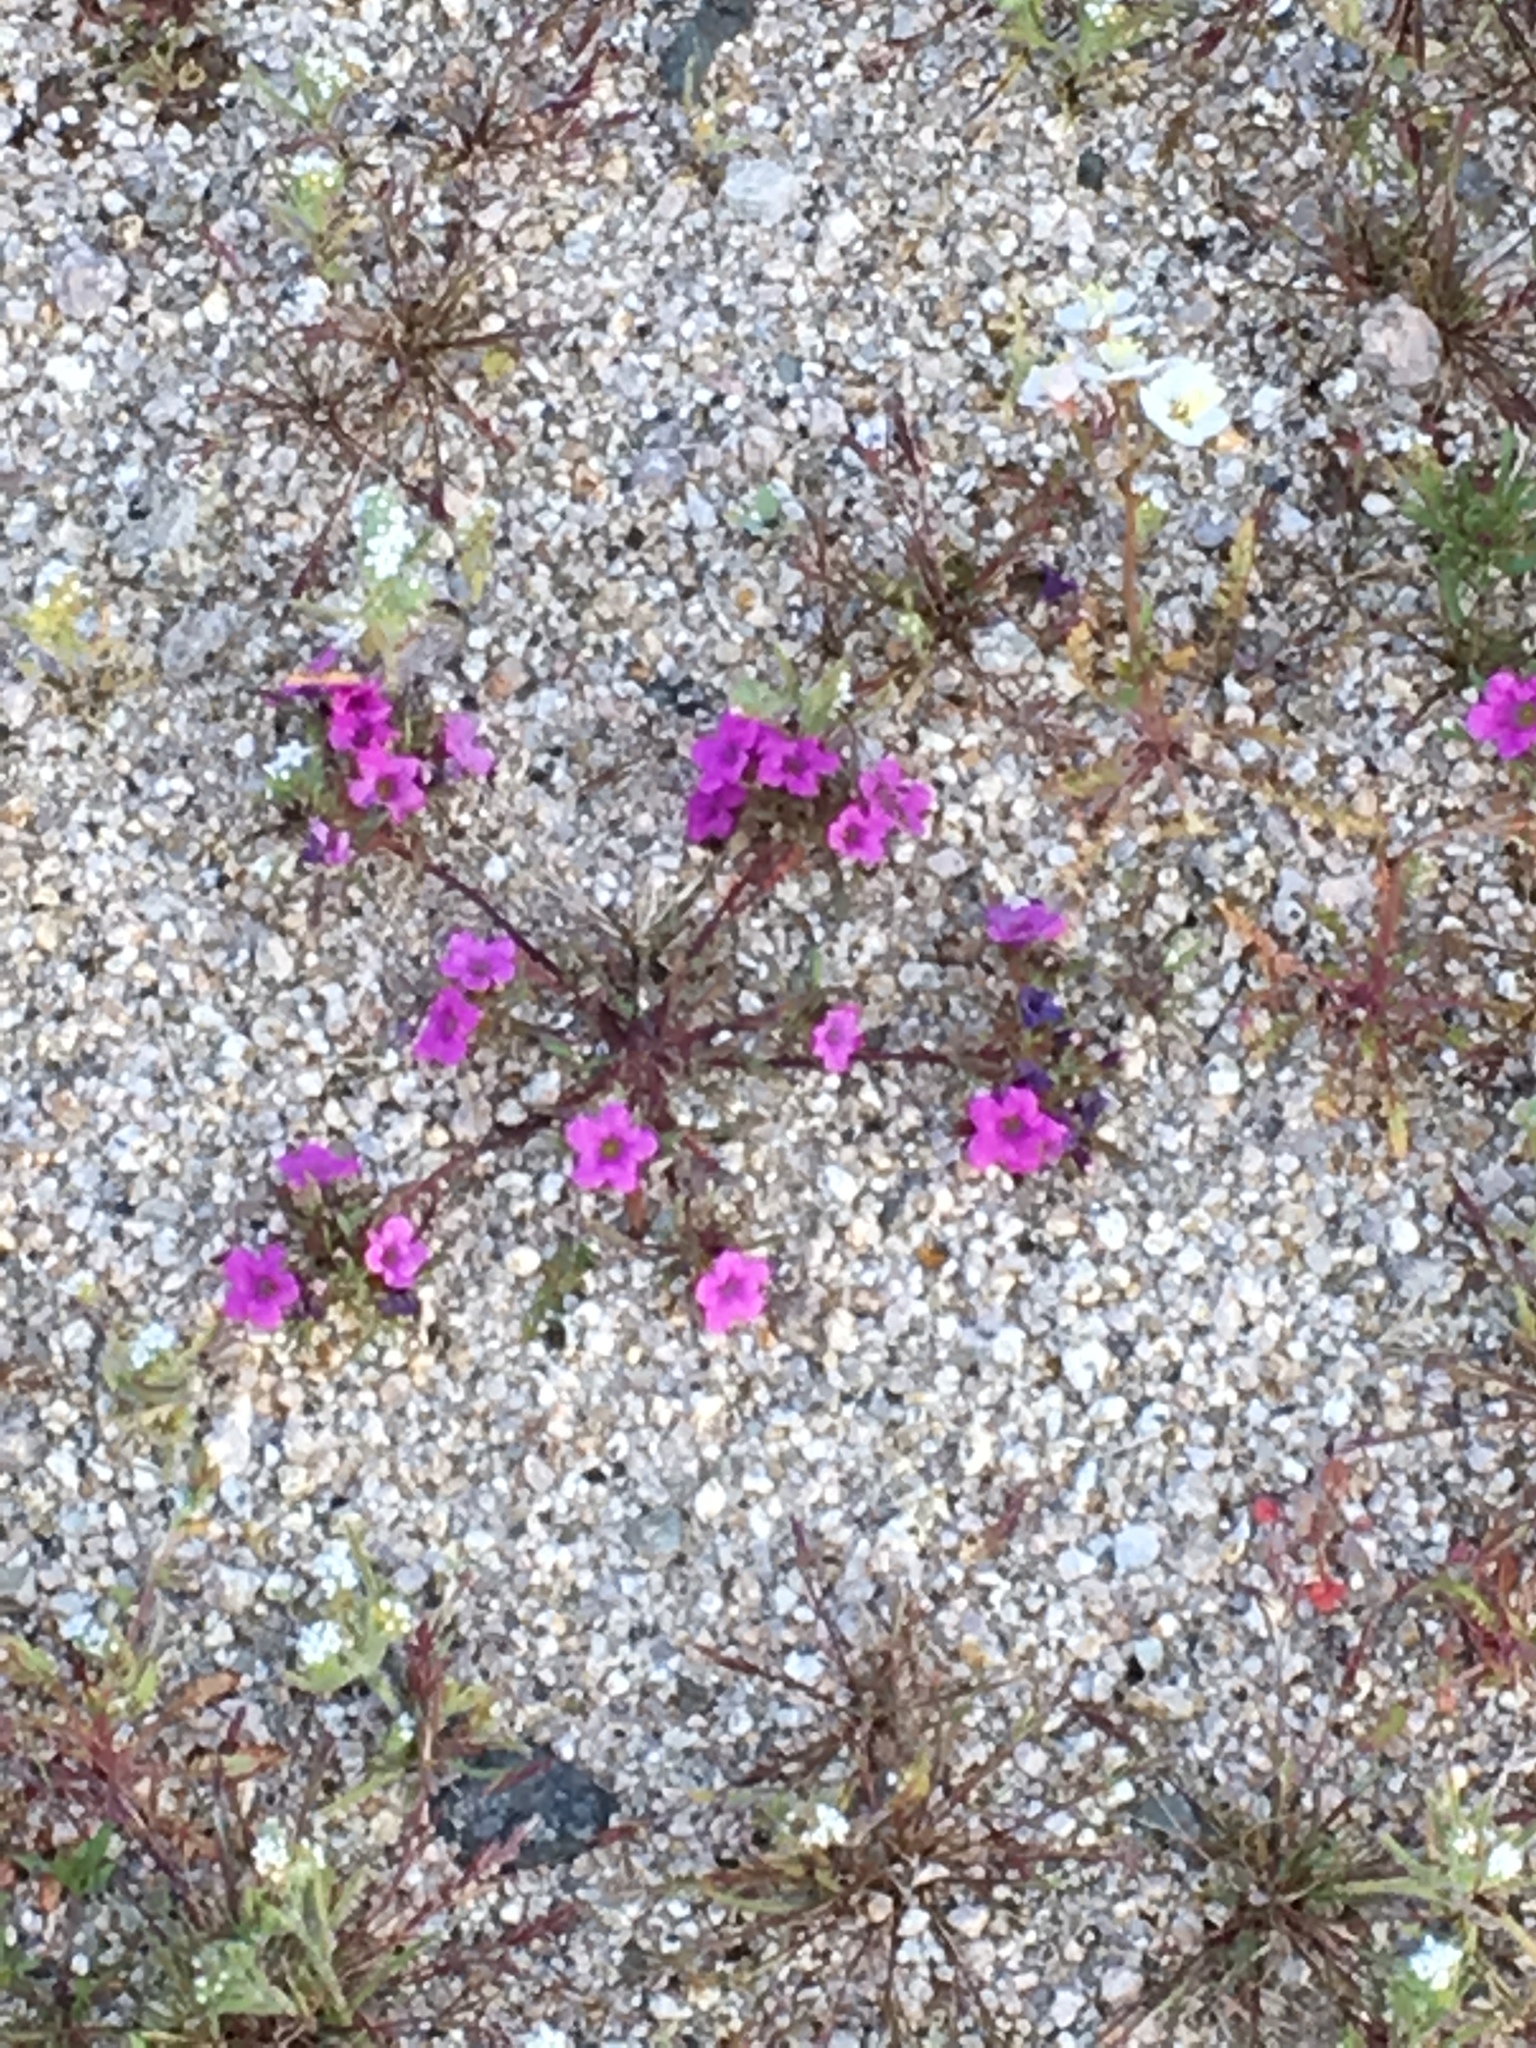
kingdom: Plantae
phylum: Tracheophyta
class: Magnoliopsida
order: Boraginales
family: Namaceae
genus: Nama
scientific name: Nama demissa
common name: Leafy nama
